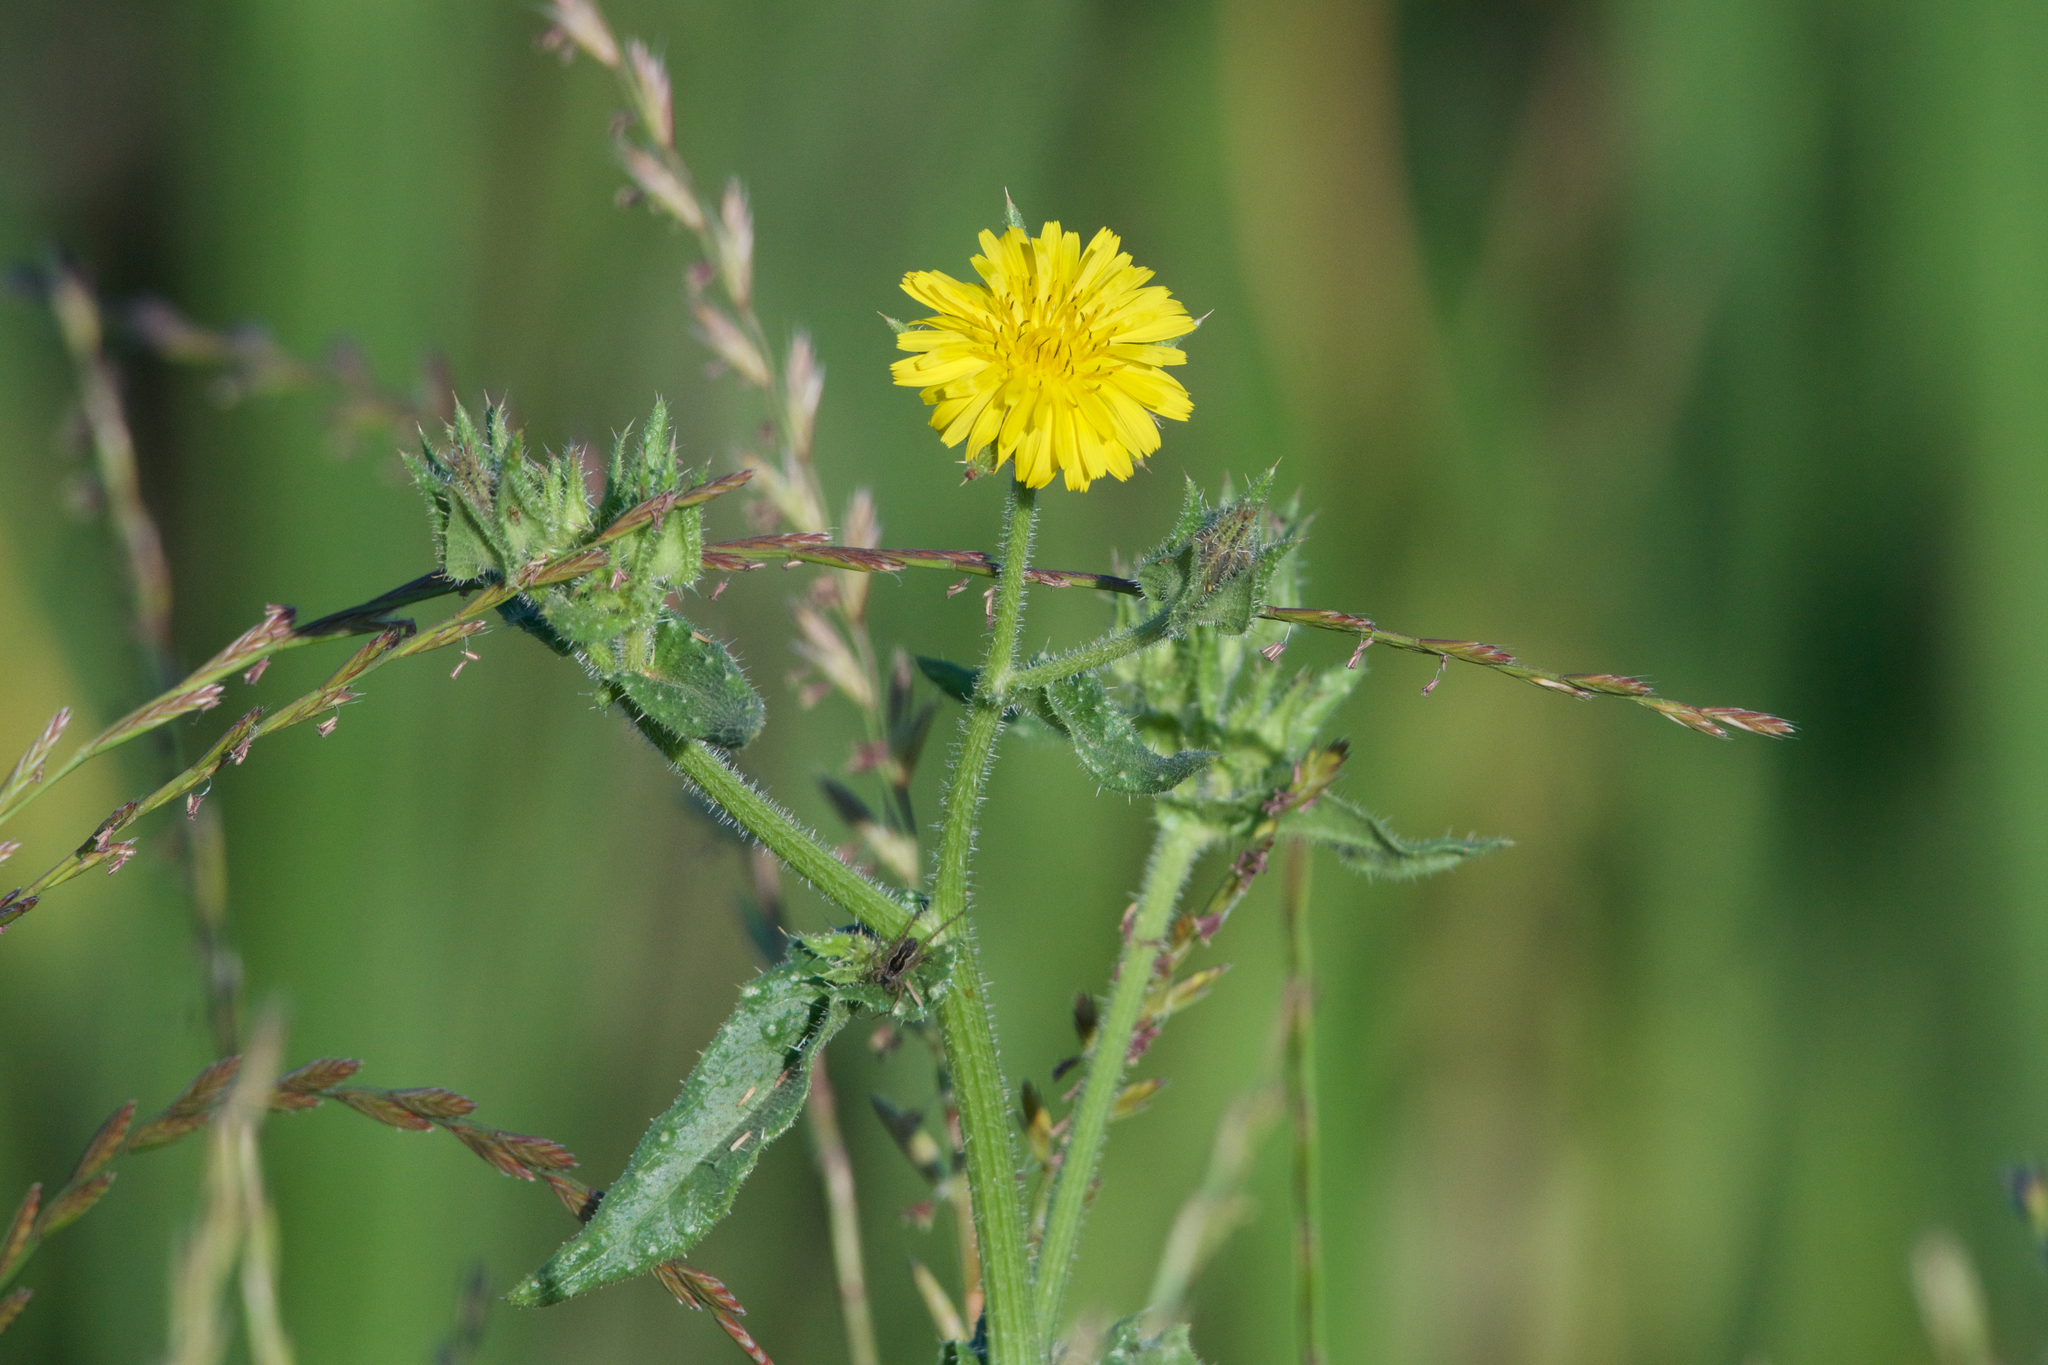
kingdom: Plantae
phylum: Tracheophyta
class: Magnoliopsida
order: Asterales
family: Asteraceae
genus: Helminthotheca
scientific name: Helminthotheca echioides
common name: Ox-tongue
